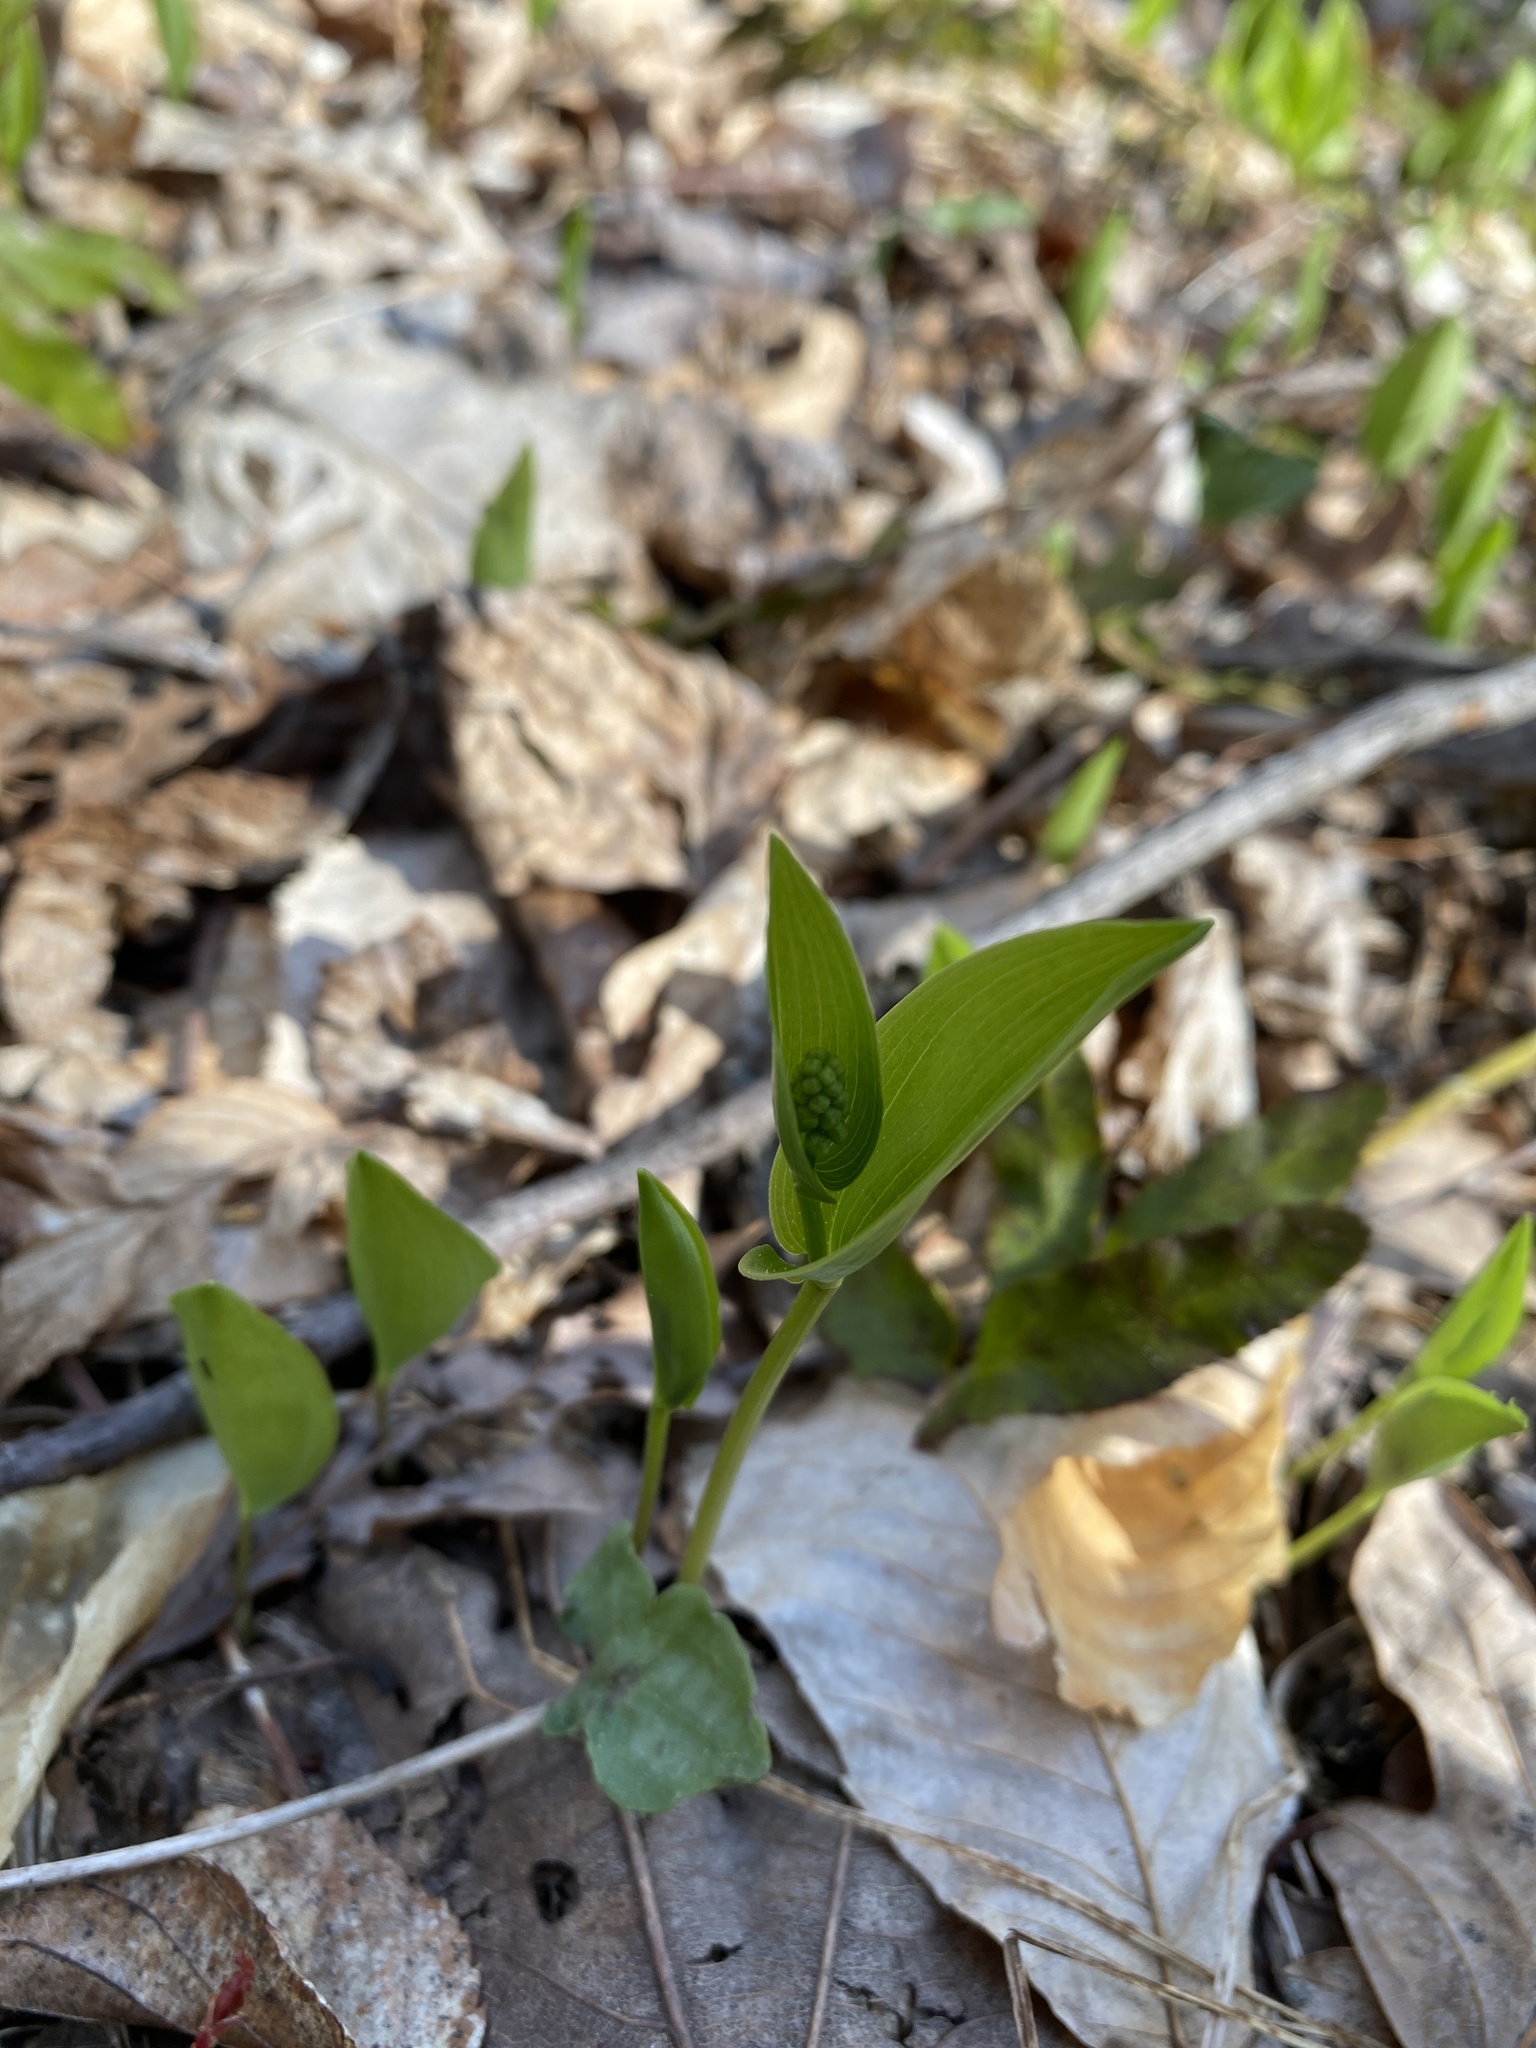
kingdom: Plantae
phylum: Tracheophyta
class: Liliopsida
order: Asparagales
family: Asparagaceae
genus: Maianthemum
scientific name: Maianthemum canadense
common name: False lily-of-the-valley
